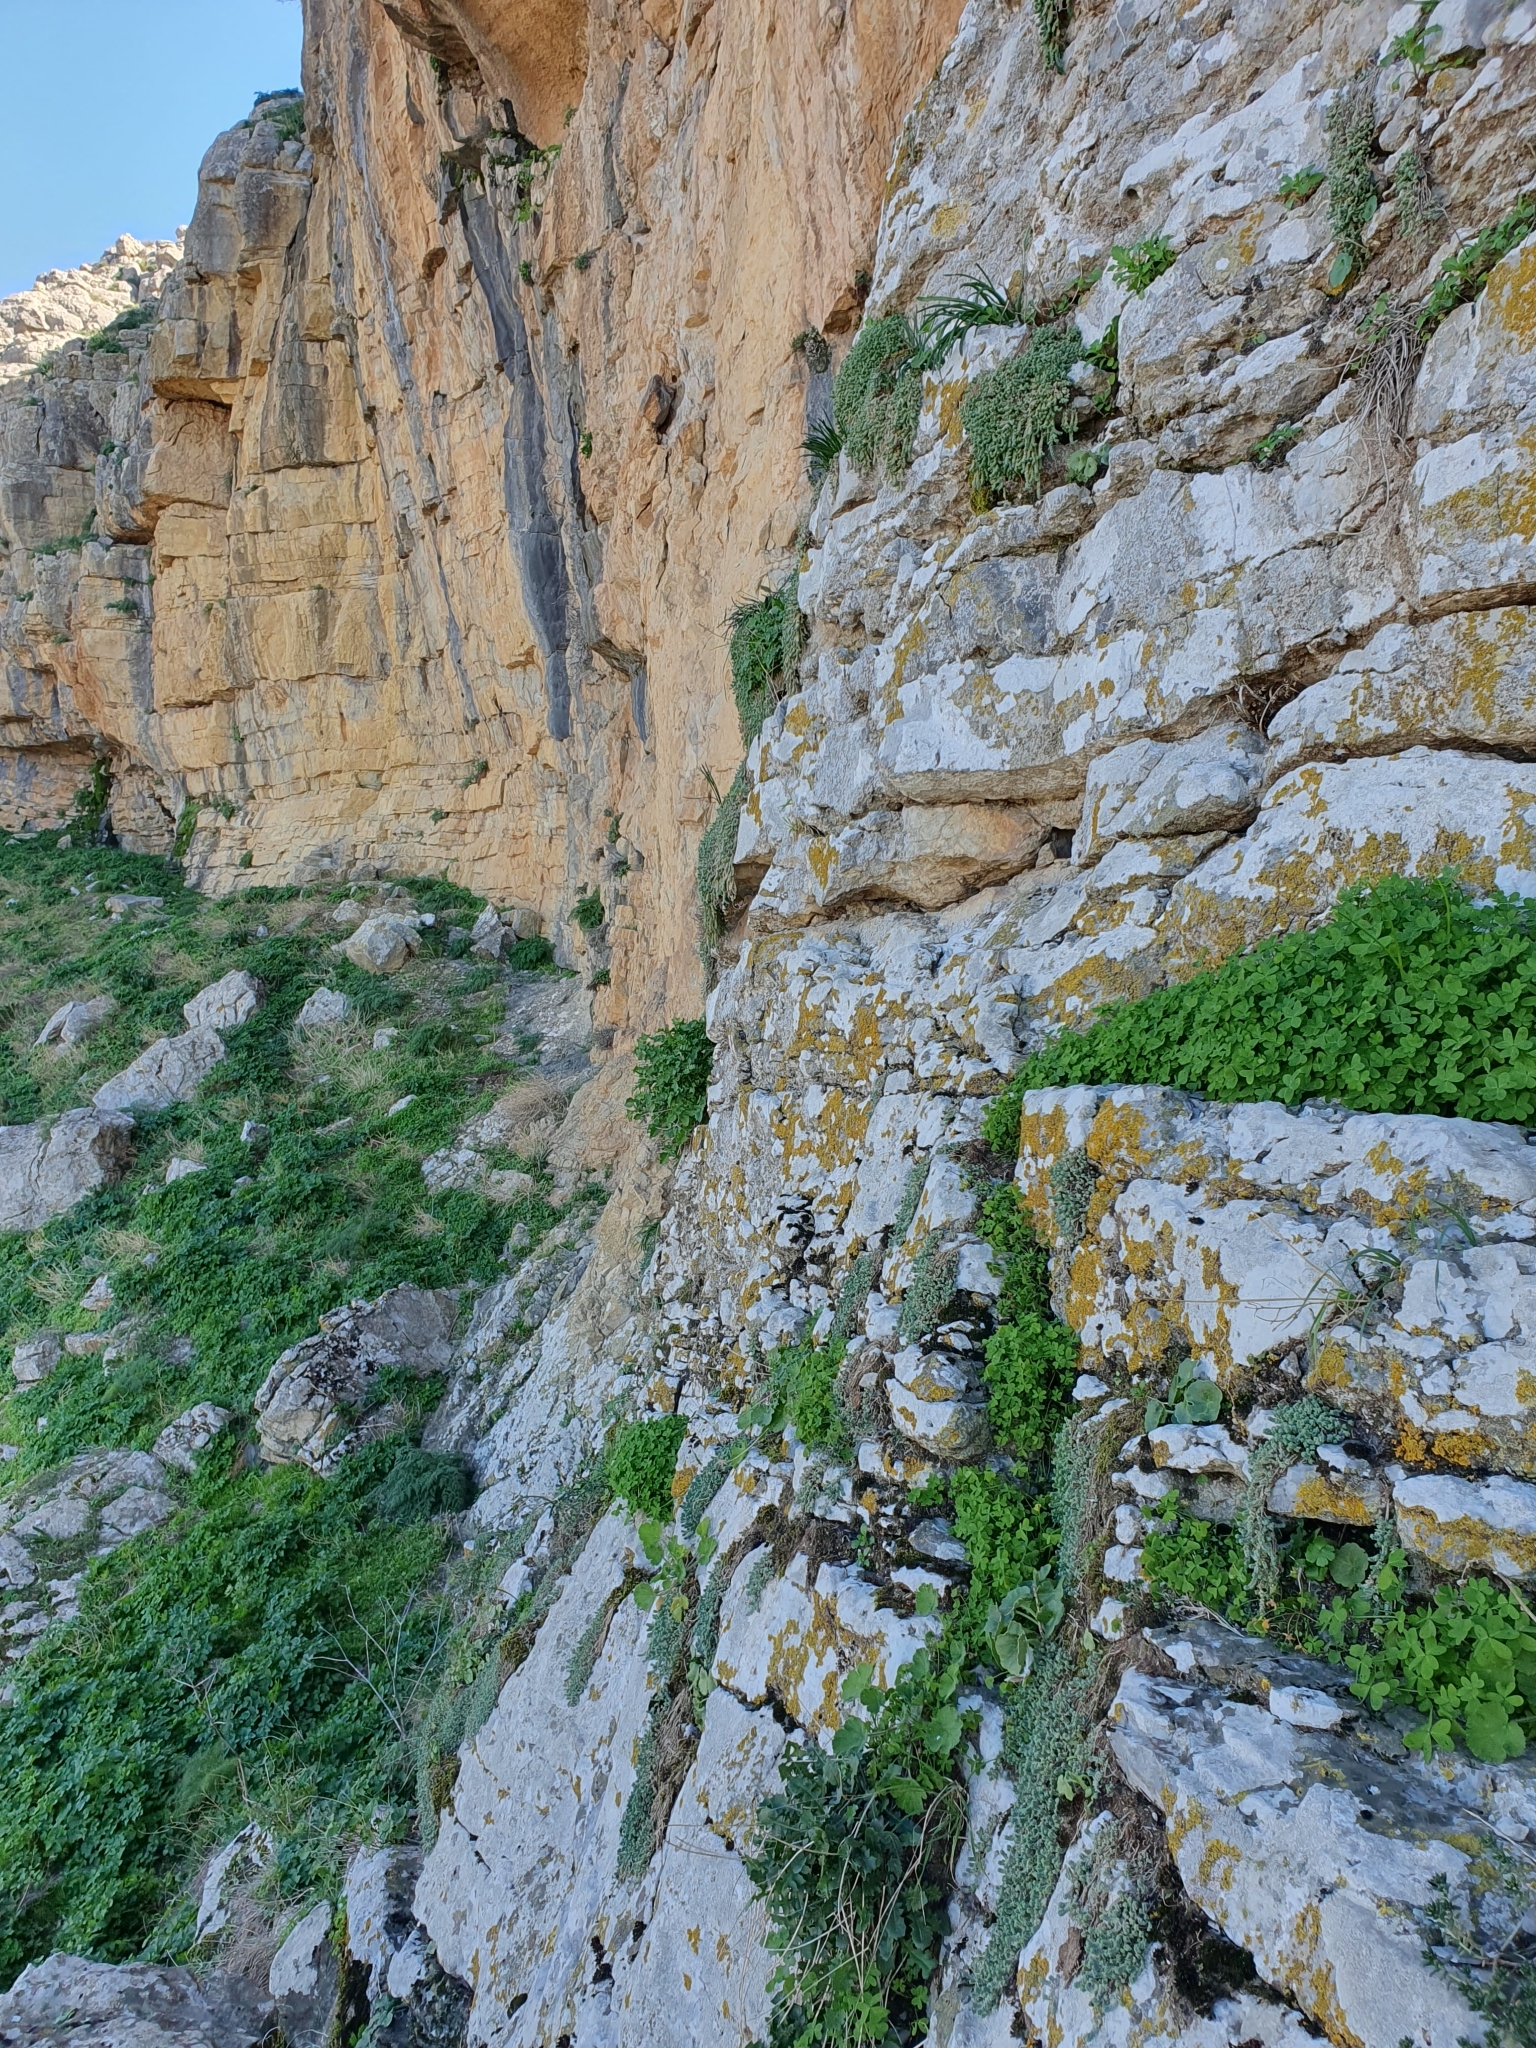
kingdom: Plantae
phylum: Tracheophyta
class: Magnoliopsida
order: Saxifragales
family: Crassulaceae
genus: Sedum
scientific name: Sedum dasyphyllum
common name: Thick-leaf stonecrop
